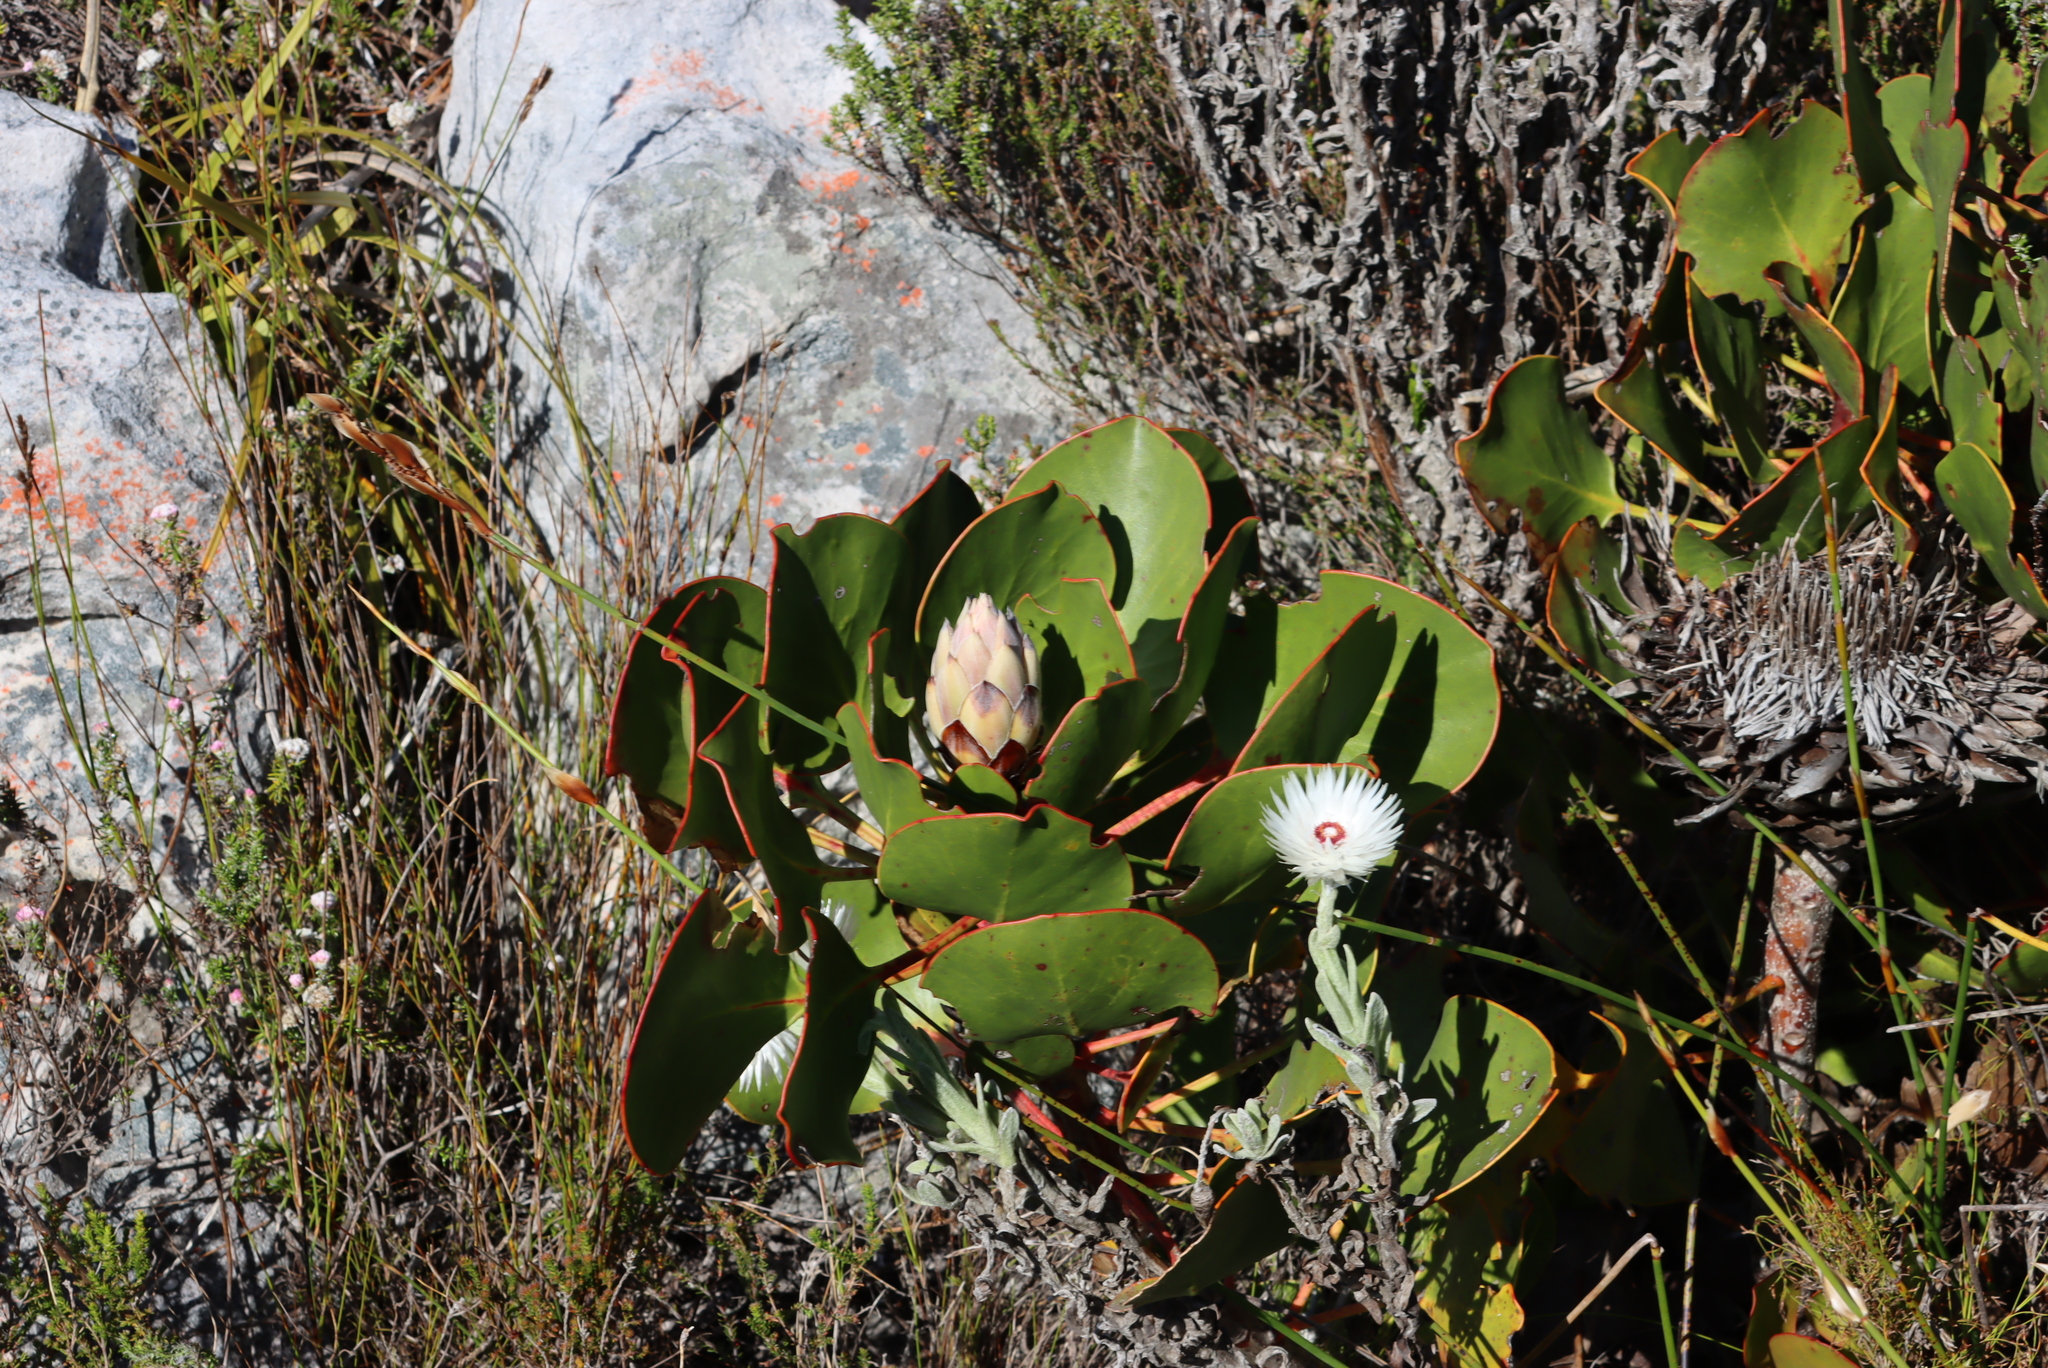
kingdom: Plantae
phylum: Tracheophyta
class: Magnoliopsida
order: Proteales
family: Proteaceae
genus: Protea
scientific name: Protea cynaroides
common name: King protea
